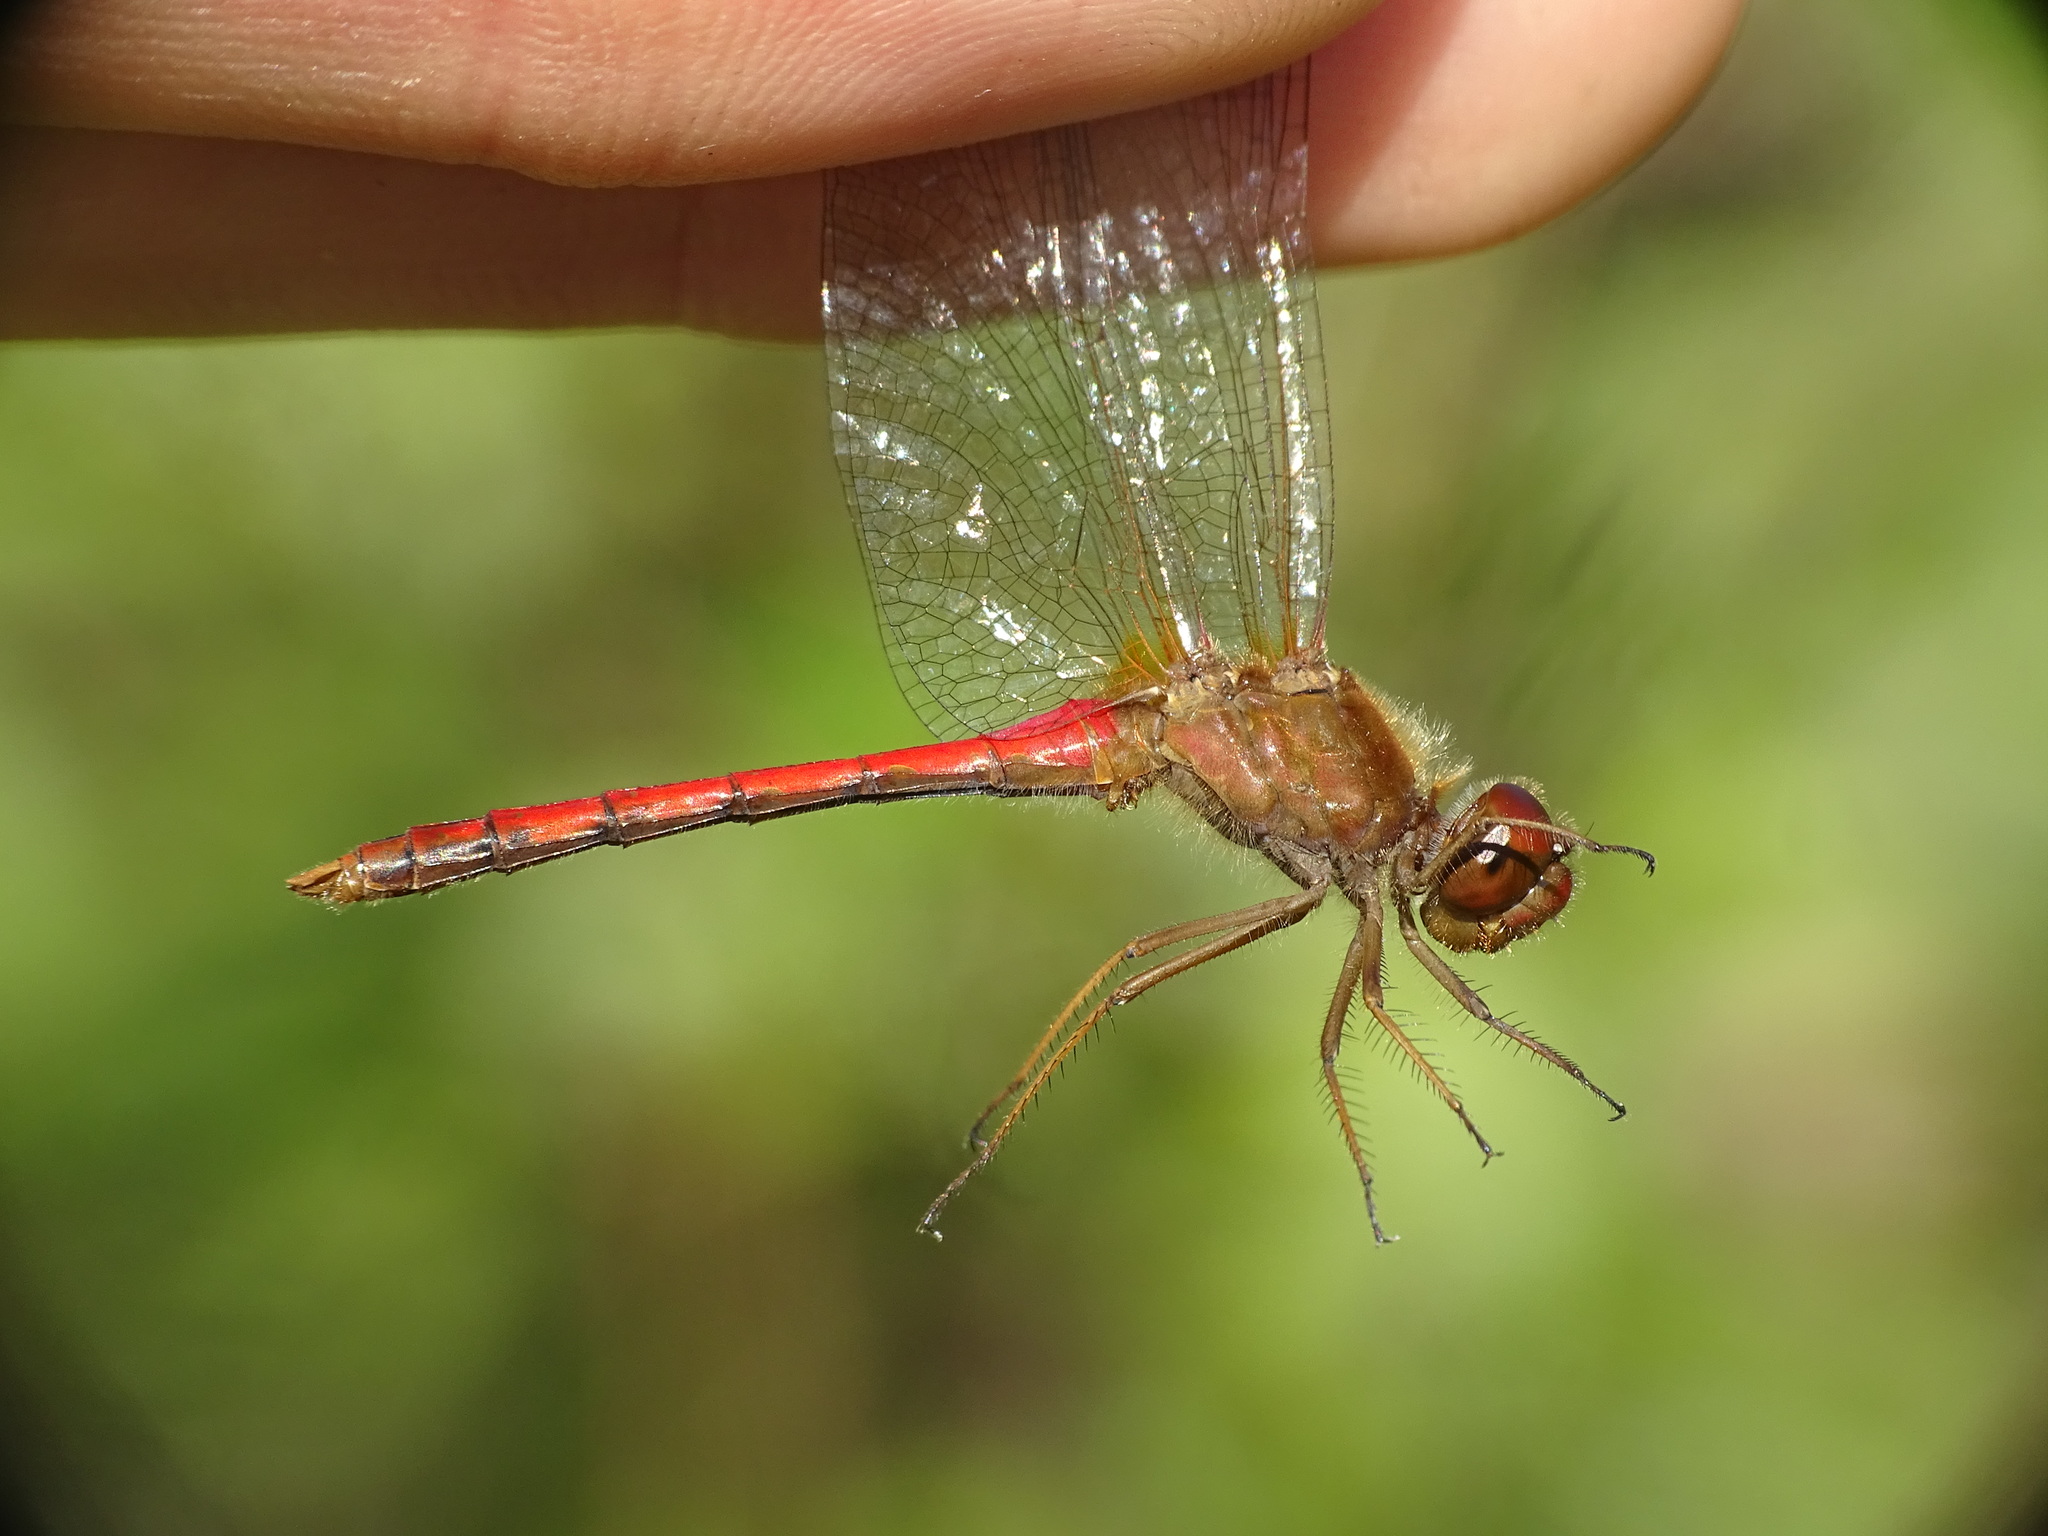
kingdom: Animalia
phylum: Arthropoda
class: Insecta
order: Odonata
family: Libellulidae
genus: Sympetrum
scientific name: Sympetrum vicinum
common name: Autumn meadowhawk
